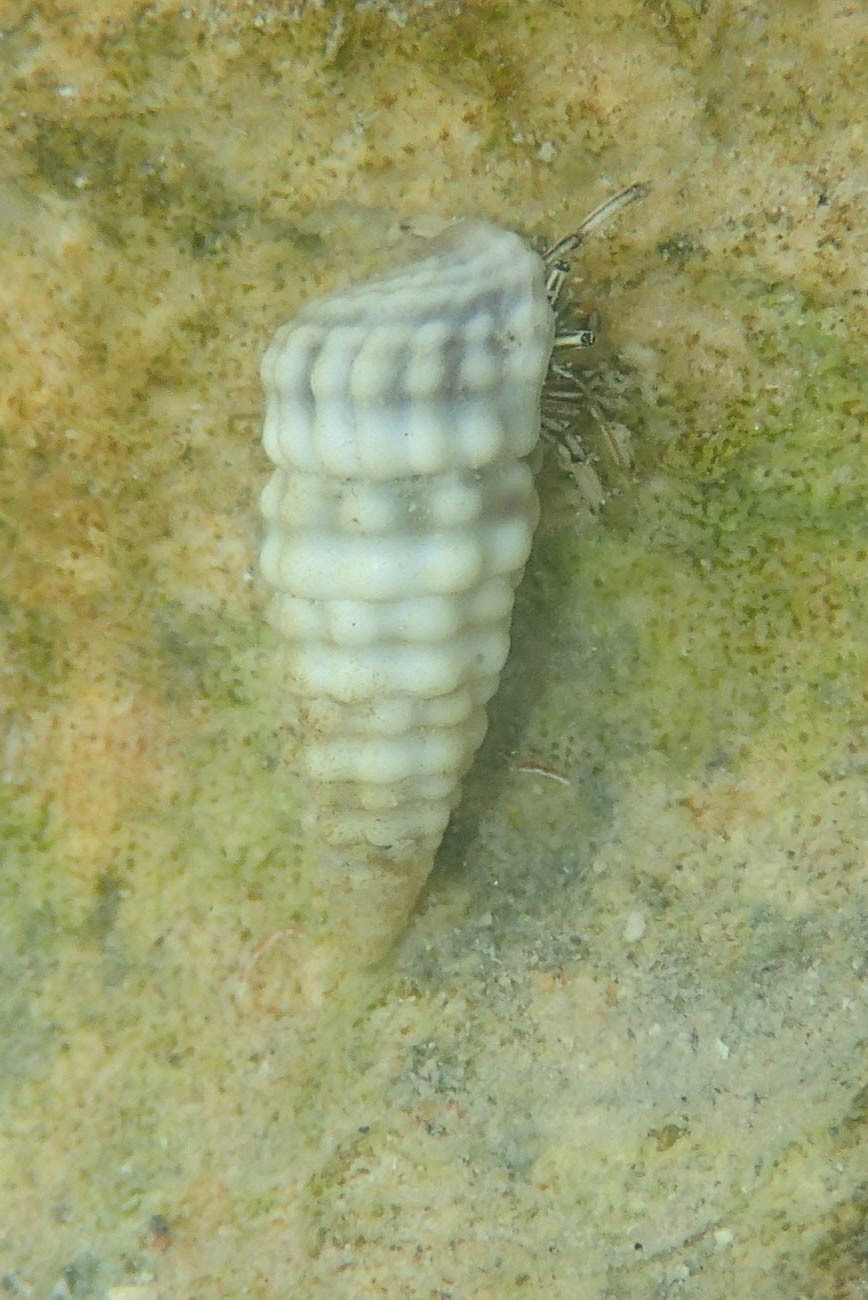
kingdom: Animalia
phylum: Arthropoda
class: Malacostraca
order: Decapoda
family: Diogenidae
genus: Clibanarius
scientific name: Clibanarius signatus
